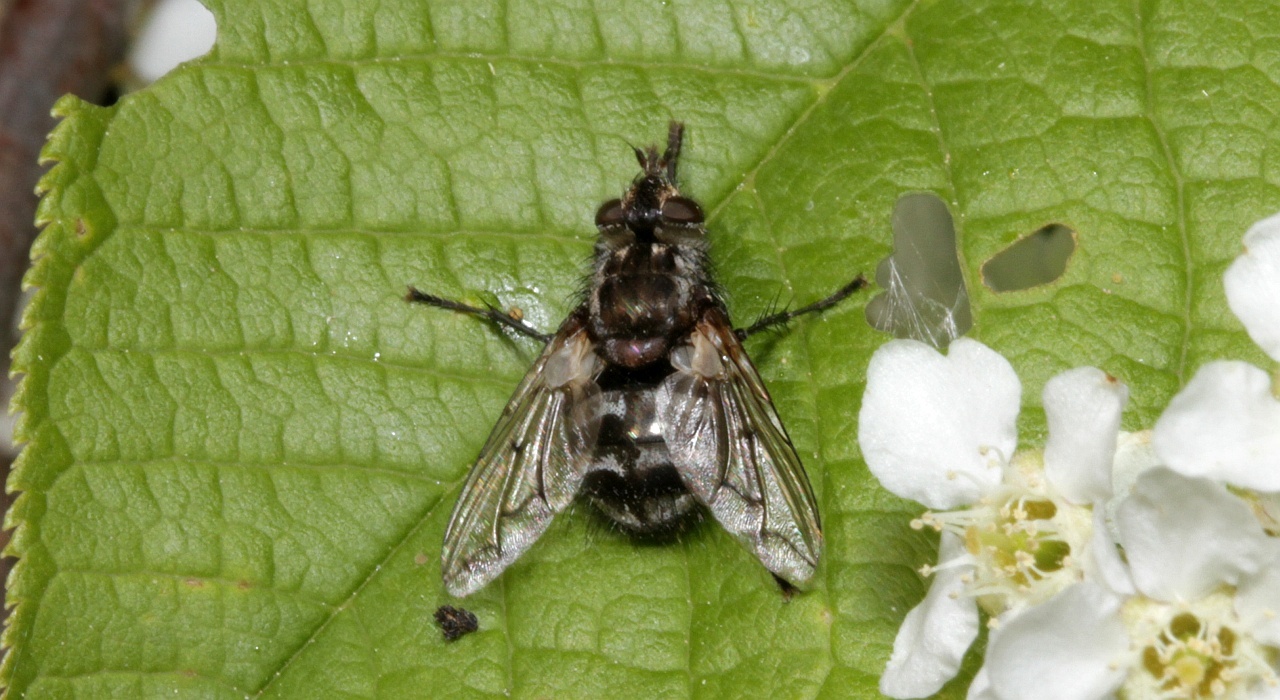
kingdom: Animalia
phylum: Arthropoda
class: Insecta
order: Diptera
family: Tachinidae
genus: Panzeria
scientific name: Panzeria puparum
